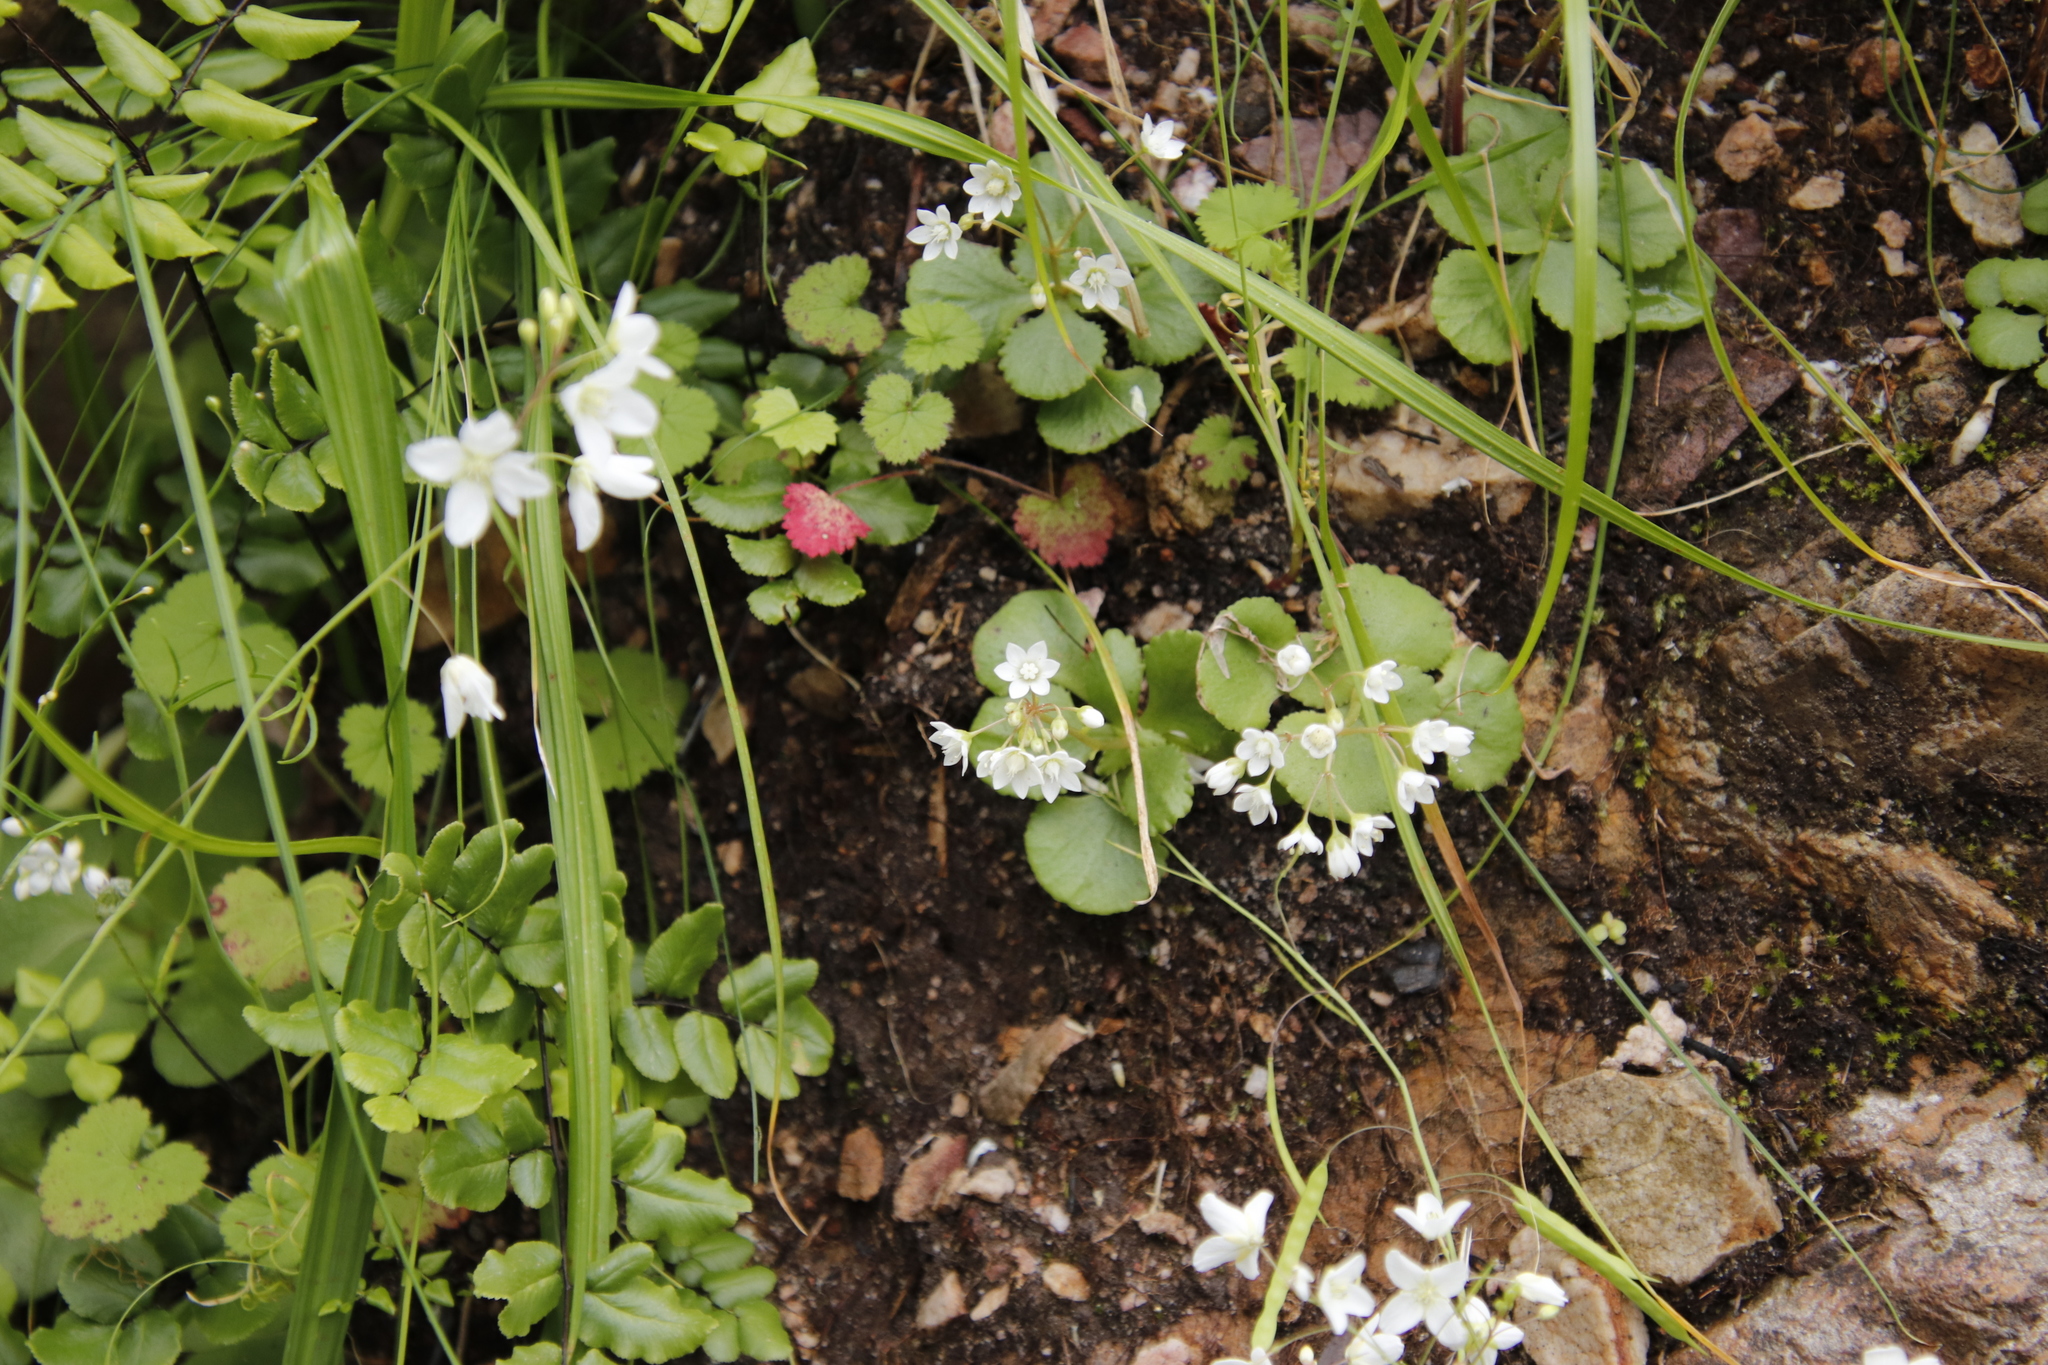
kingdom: Plantae
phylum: Tracheophyta
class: Magnoliopsida
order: Saxifragales
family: Crassulaceae
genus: Crassula
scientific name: Crassula capensis
